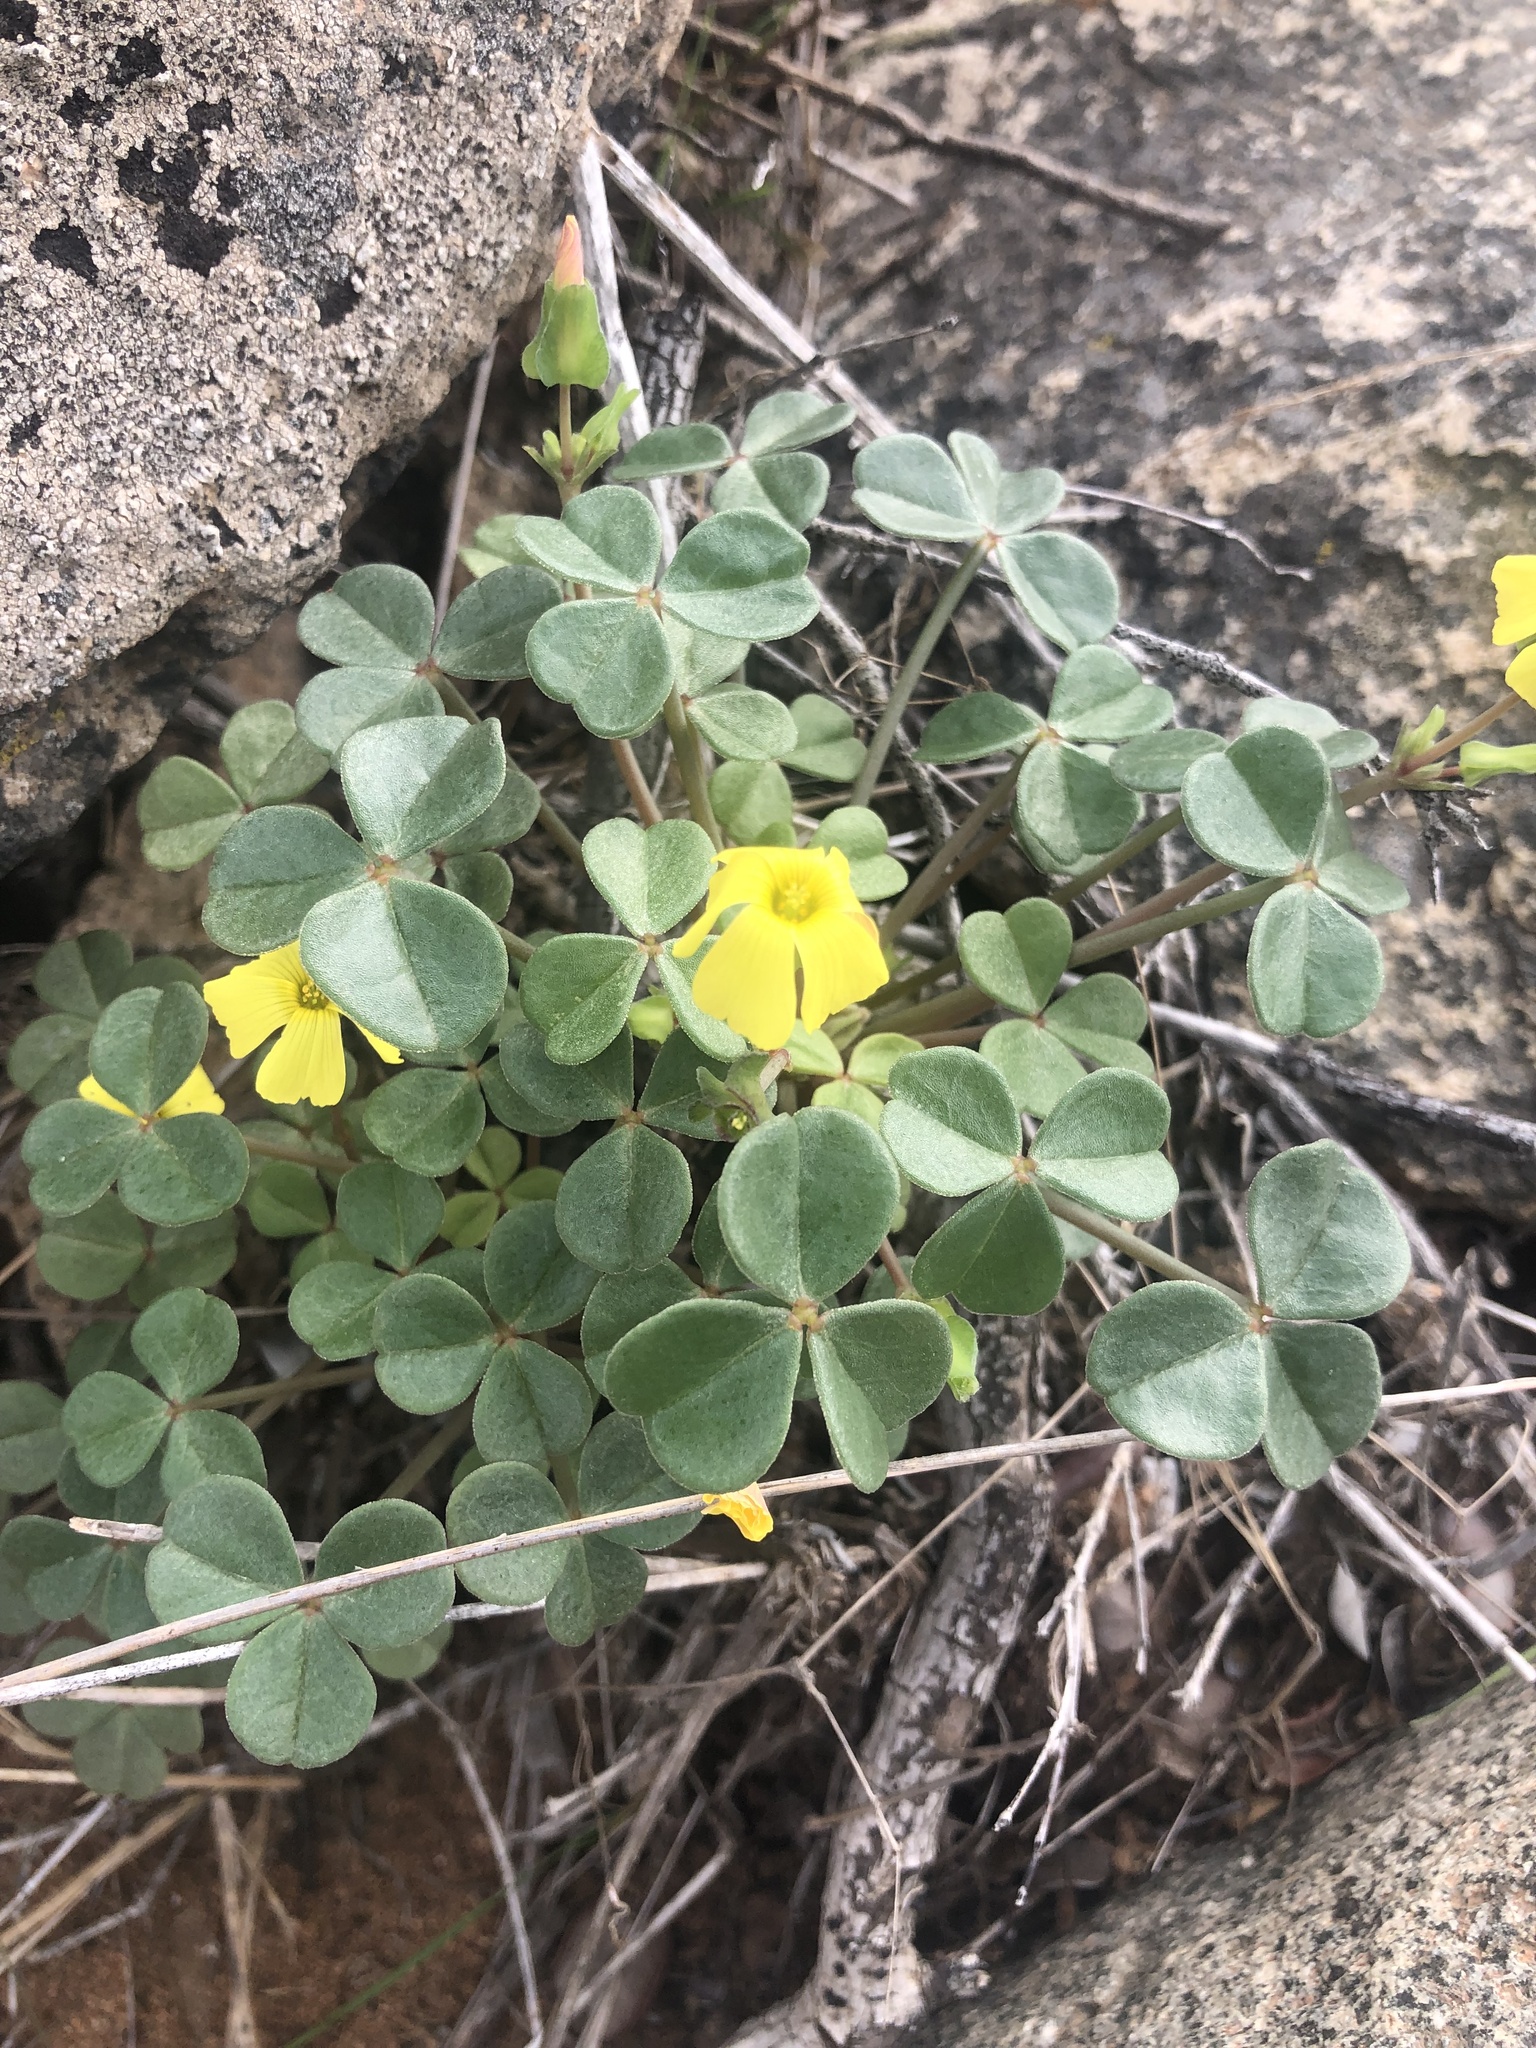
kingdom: Plantae
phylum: Tracheophyta
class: Magnoliopsida
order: Oxalidales
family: Oxalidaceae
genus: Oxalis
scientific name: Oxalis megalorrhiza
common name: Fleshy yellow-sorrel
